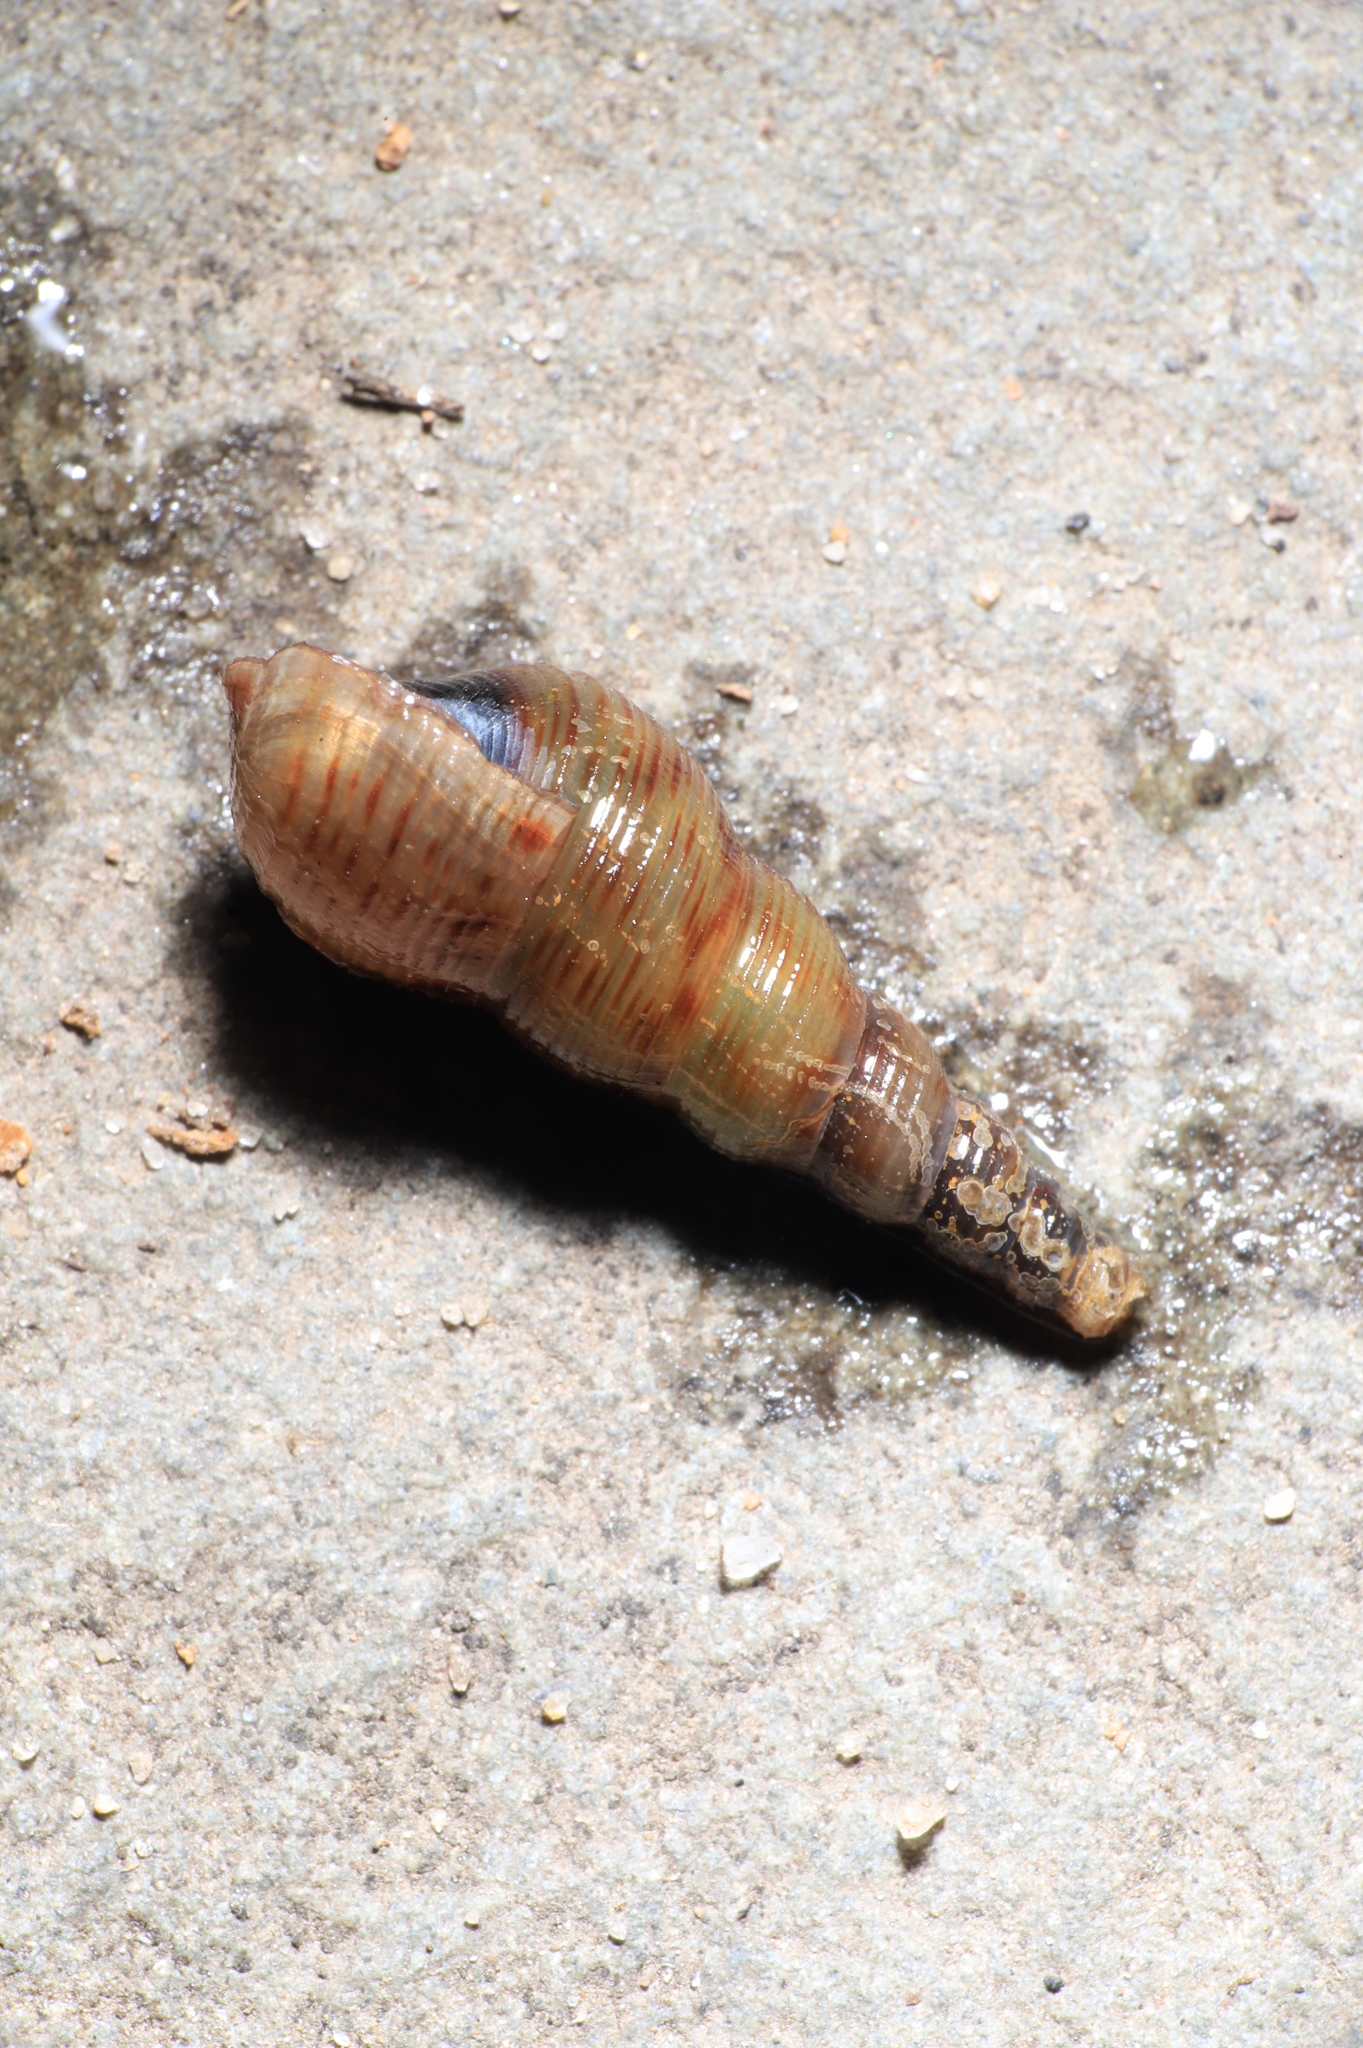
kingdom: Animalia
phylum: Mollusca
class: Gastropoda
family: Thiaridae
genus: Melanoides
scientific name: Melanoides tuberculata
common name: Red-rim melania
